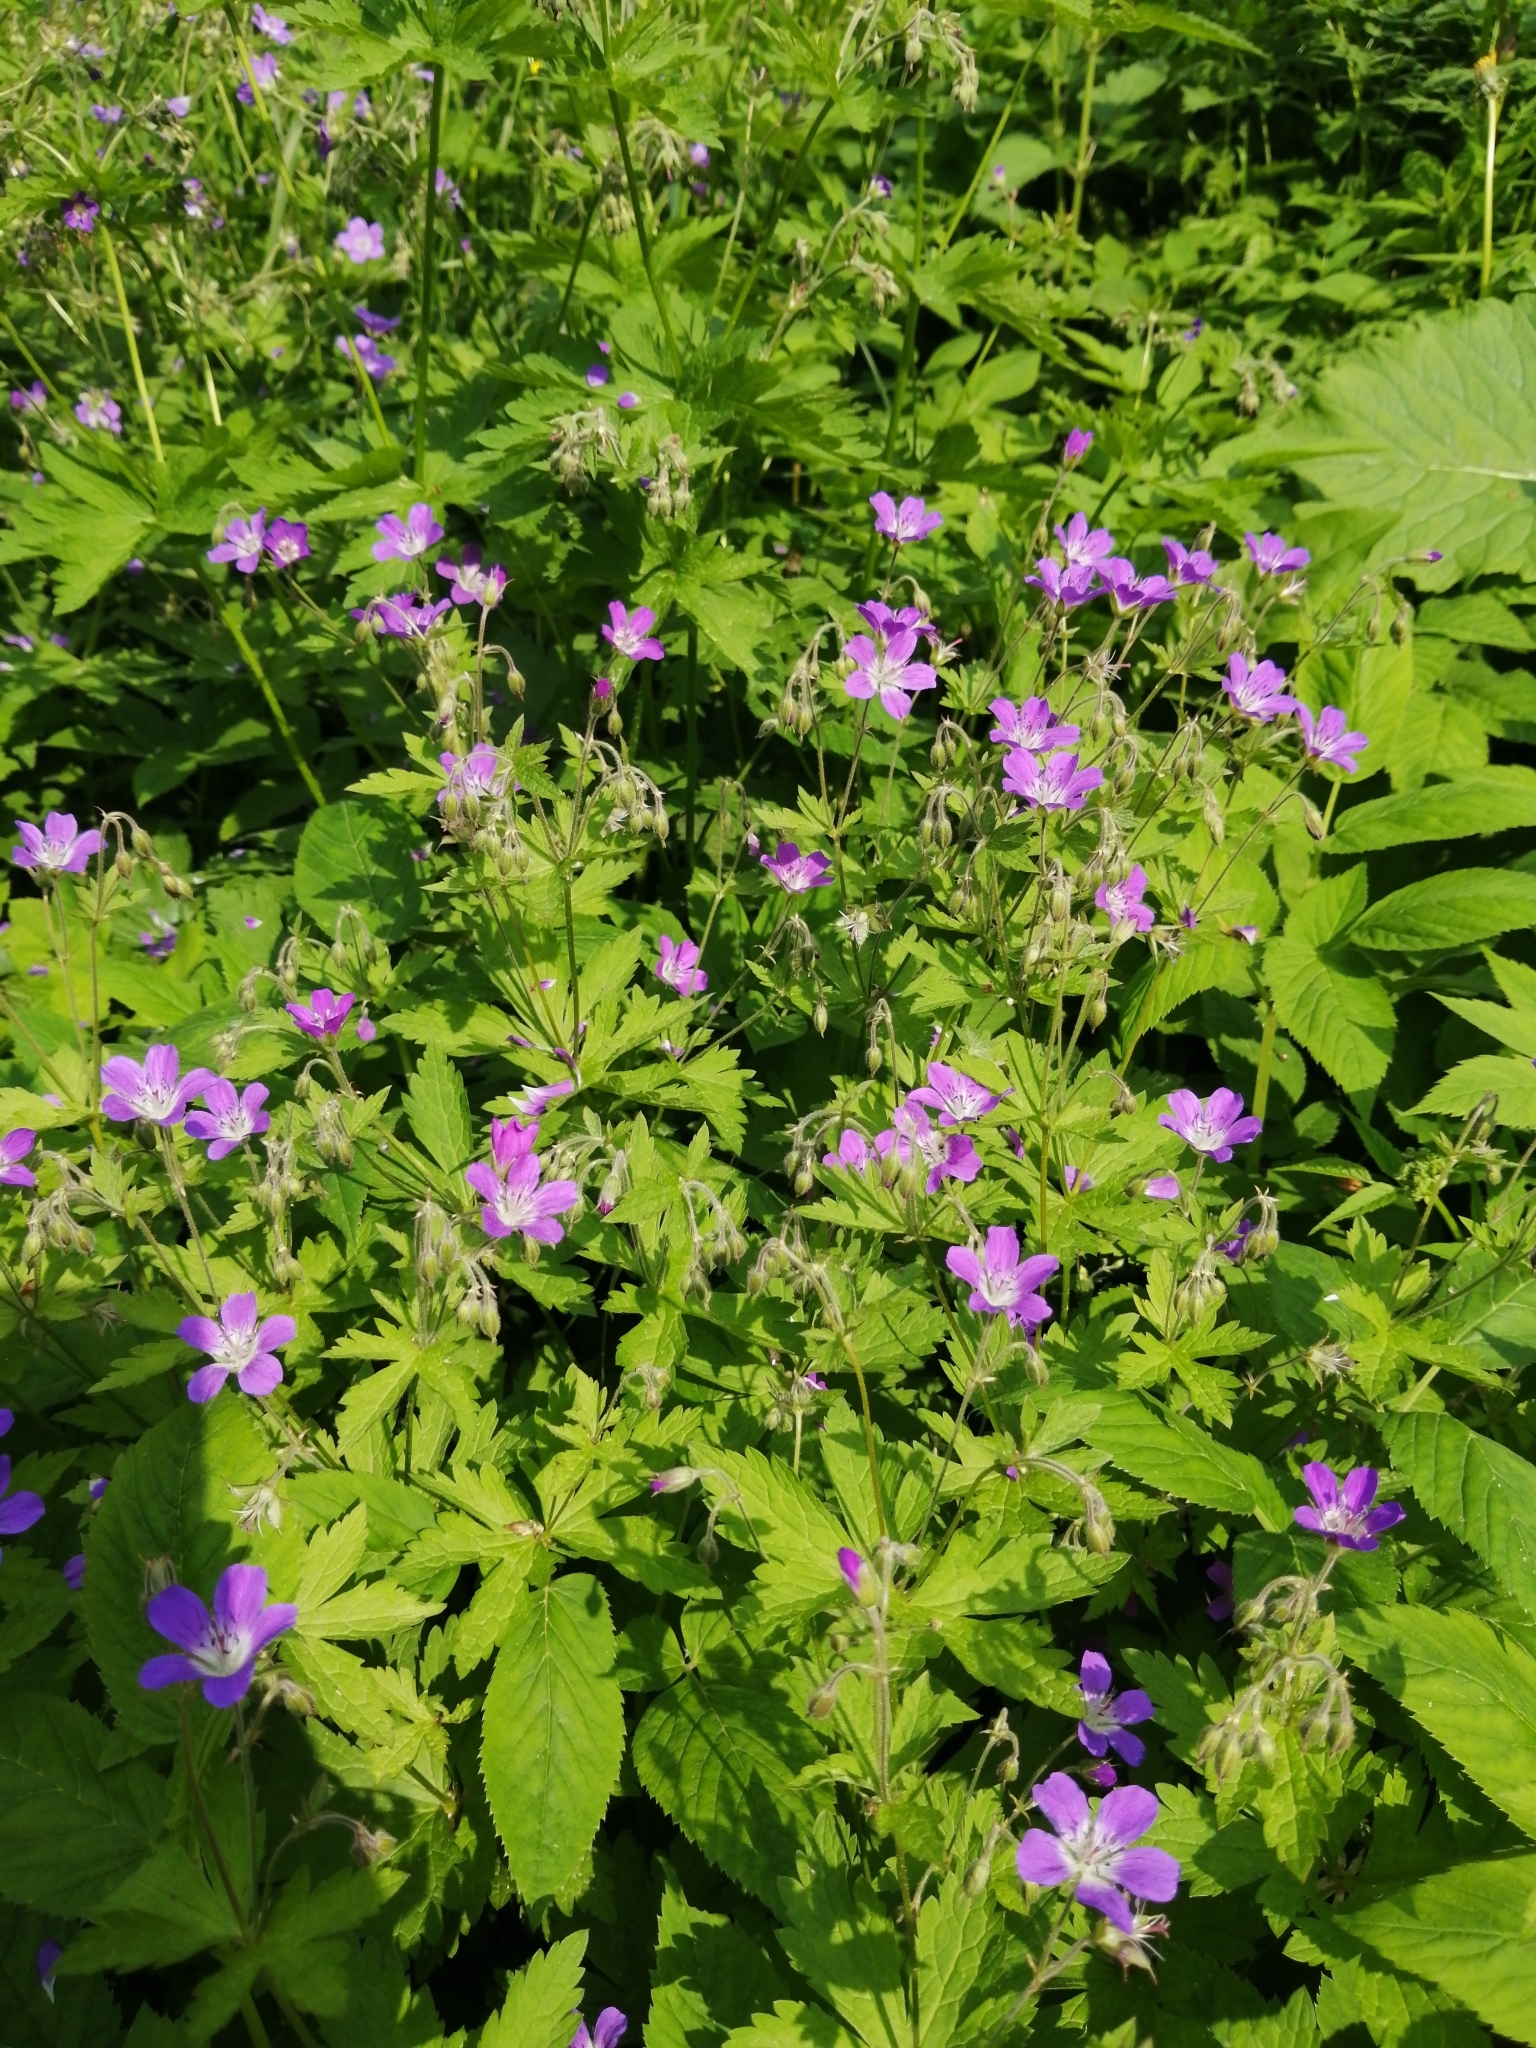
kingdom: Plantae
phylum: Tracheophyta
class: Magnoliopsida
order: Geraniales
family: Geraniaceae
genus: Geranium
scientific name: Geranium sylvaticum
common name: Wood crane's-bill
